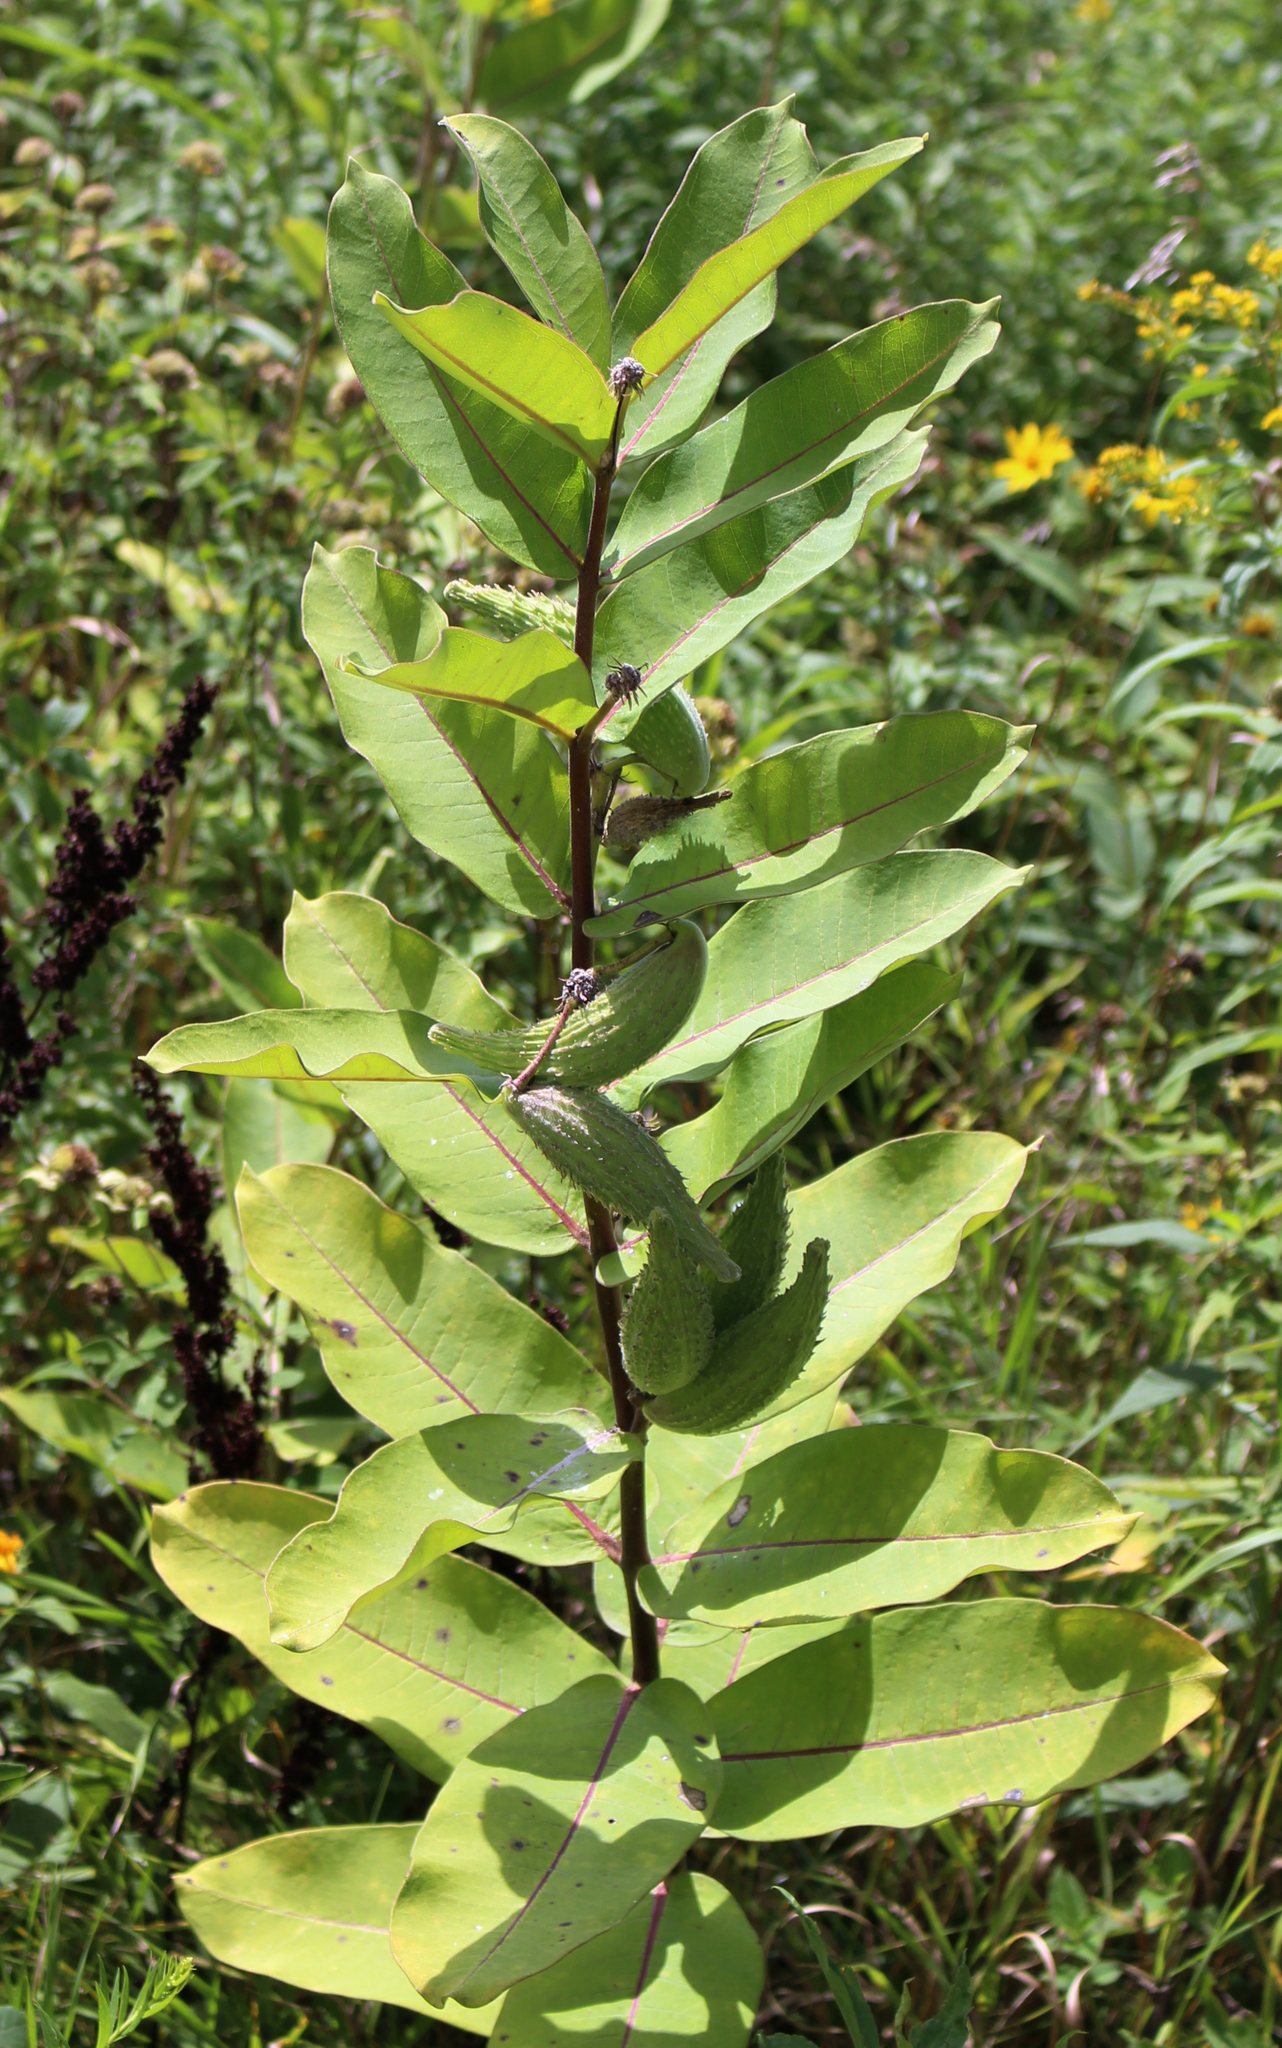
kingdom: Plantae
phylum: Tracheophyta
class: Magnoliopsida
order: Gentianales
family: Apocynaceae
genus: Asclepias
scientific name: Asclepias syriaca
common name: Common milkweed
